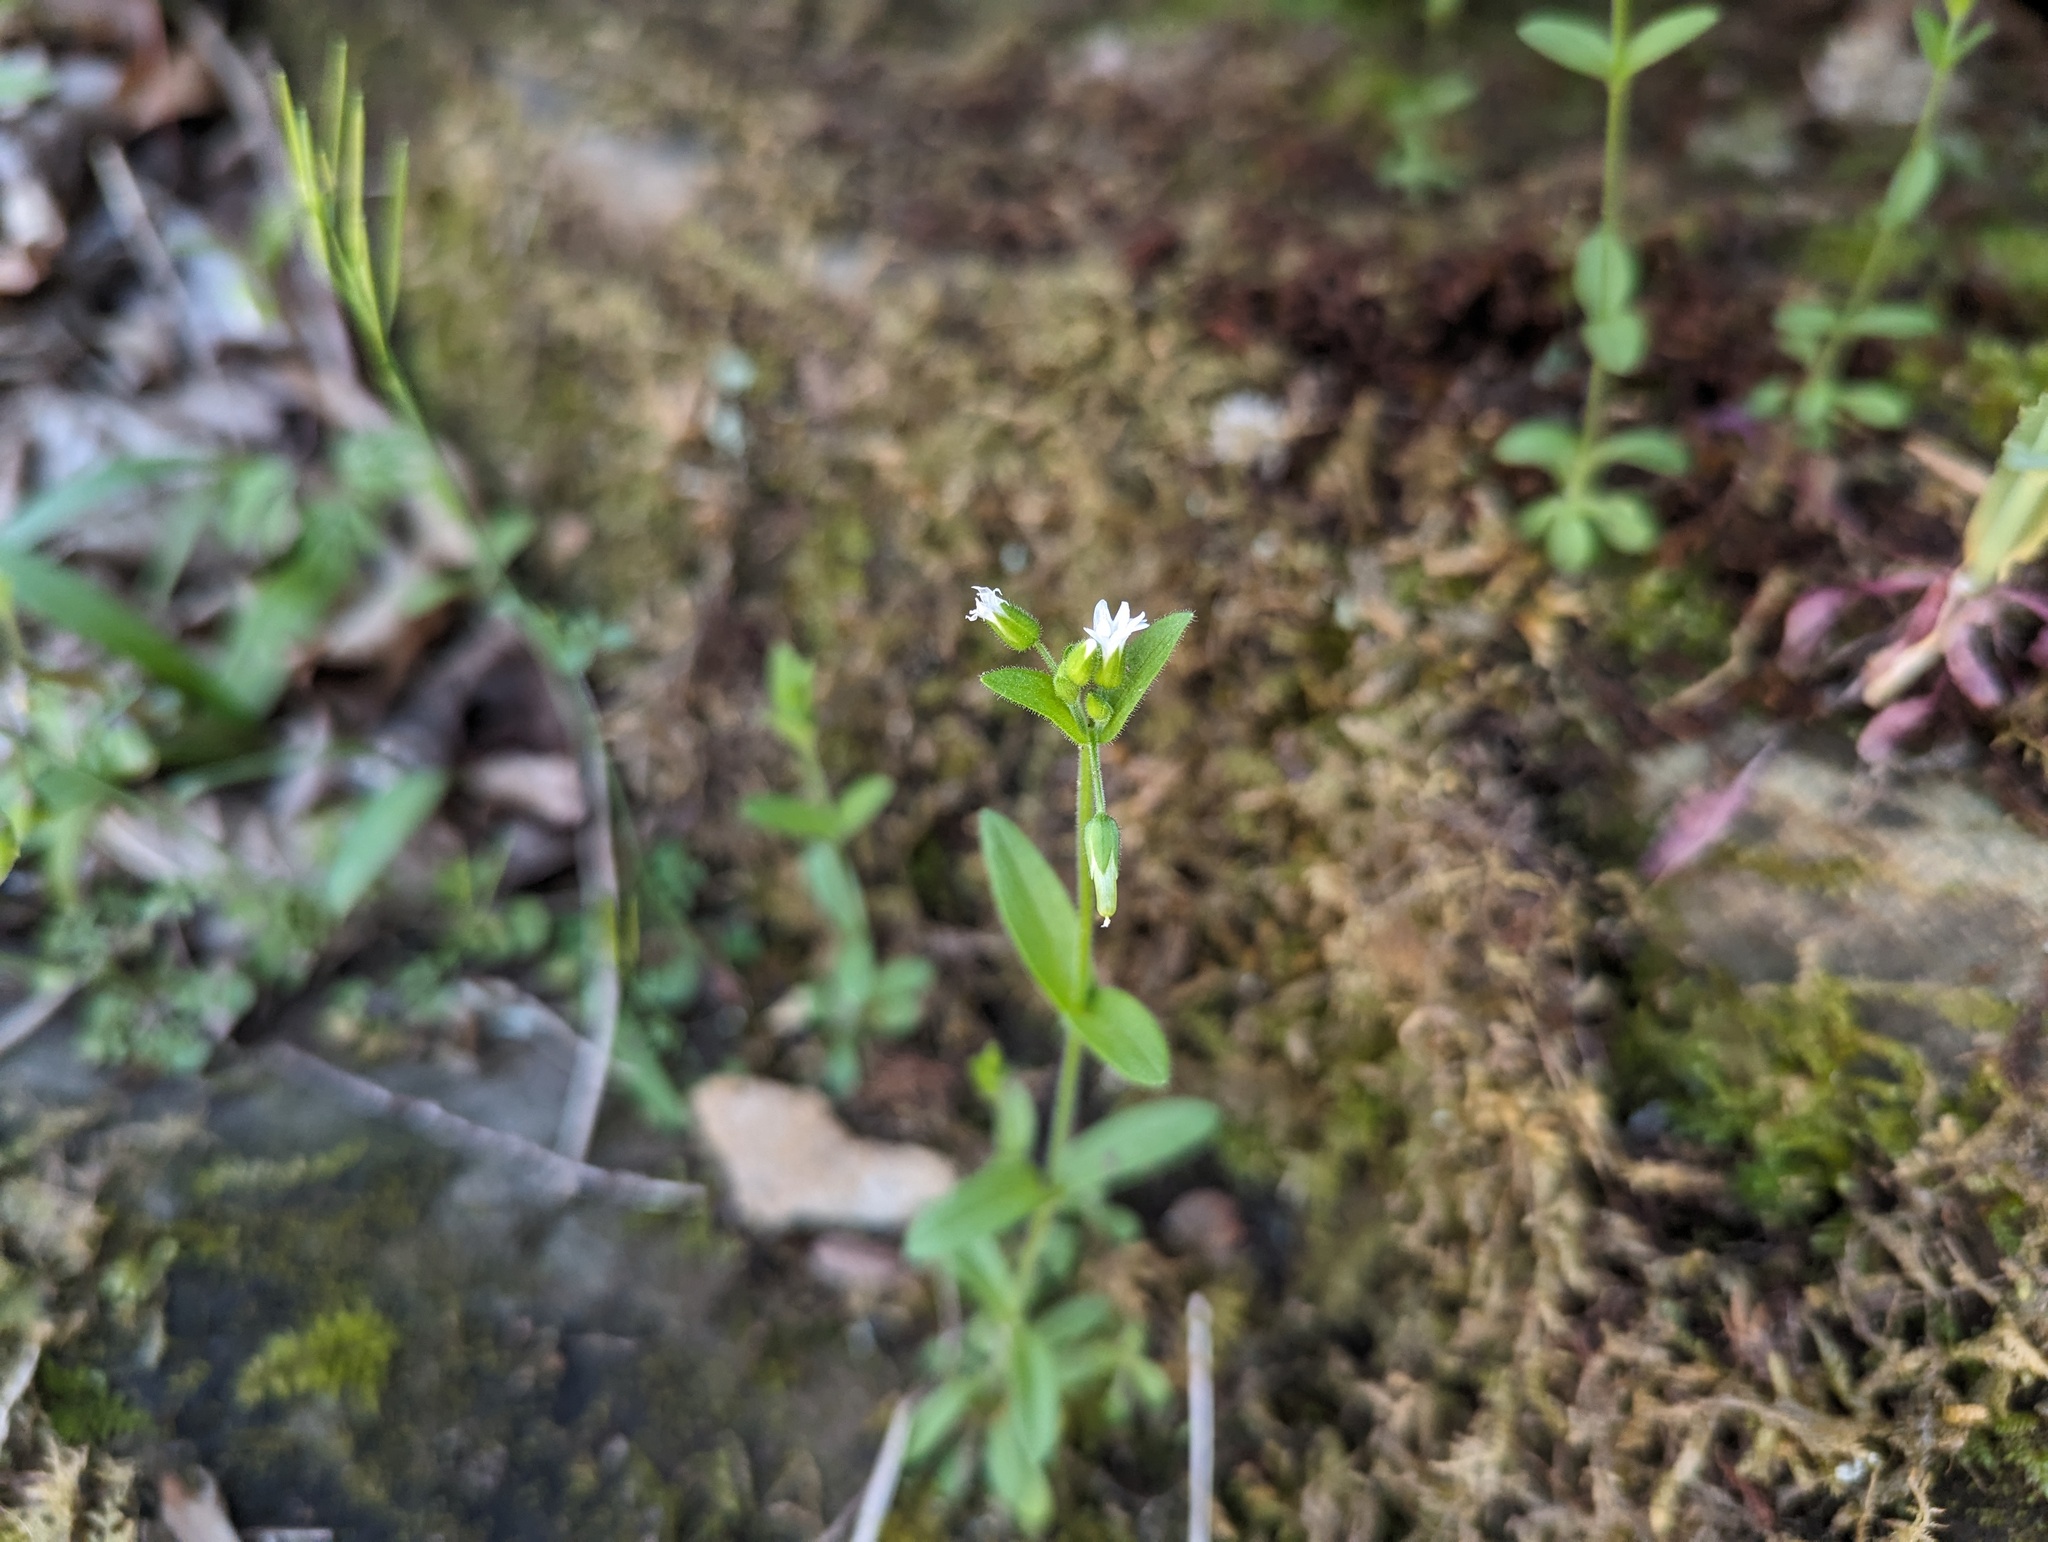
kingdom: Plantae
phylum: Tracheophyta
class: Magnoliopsida
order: Caryophyllales
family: Caryophyllaceae
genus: Cerastium
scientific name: Cerastium nutans
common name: Long-stalked chickweed
